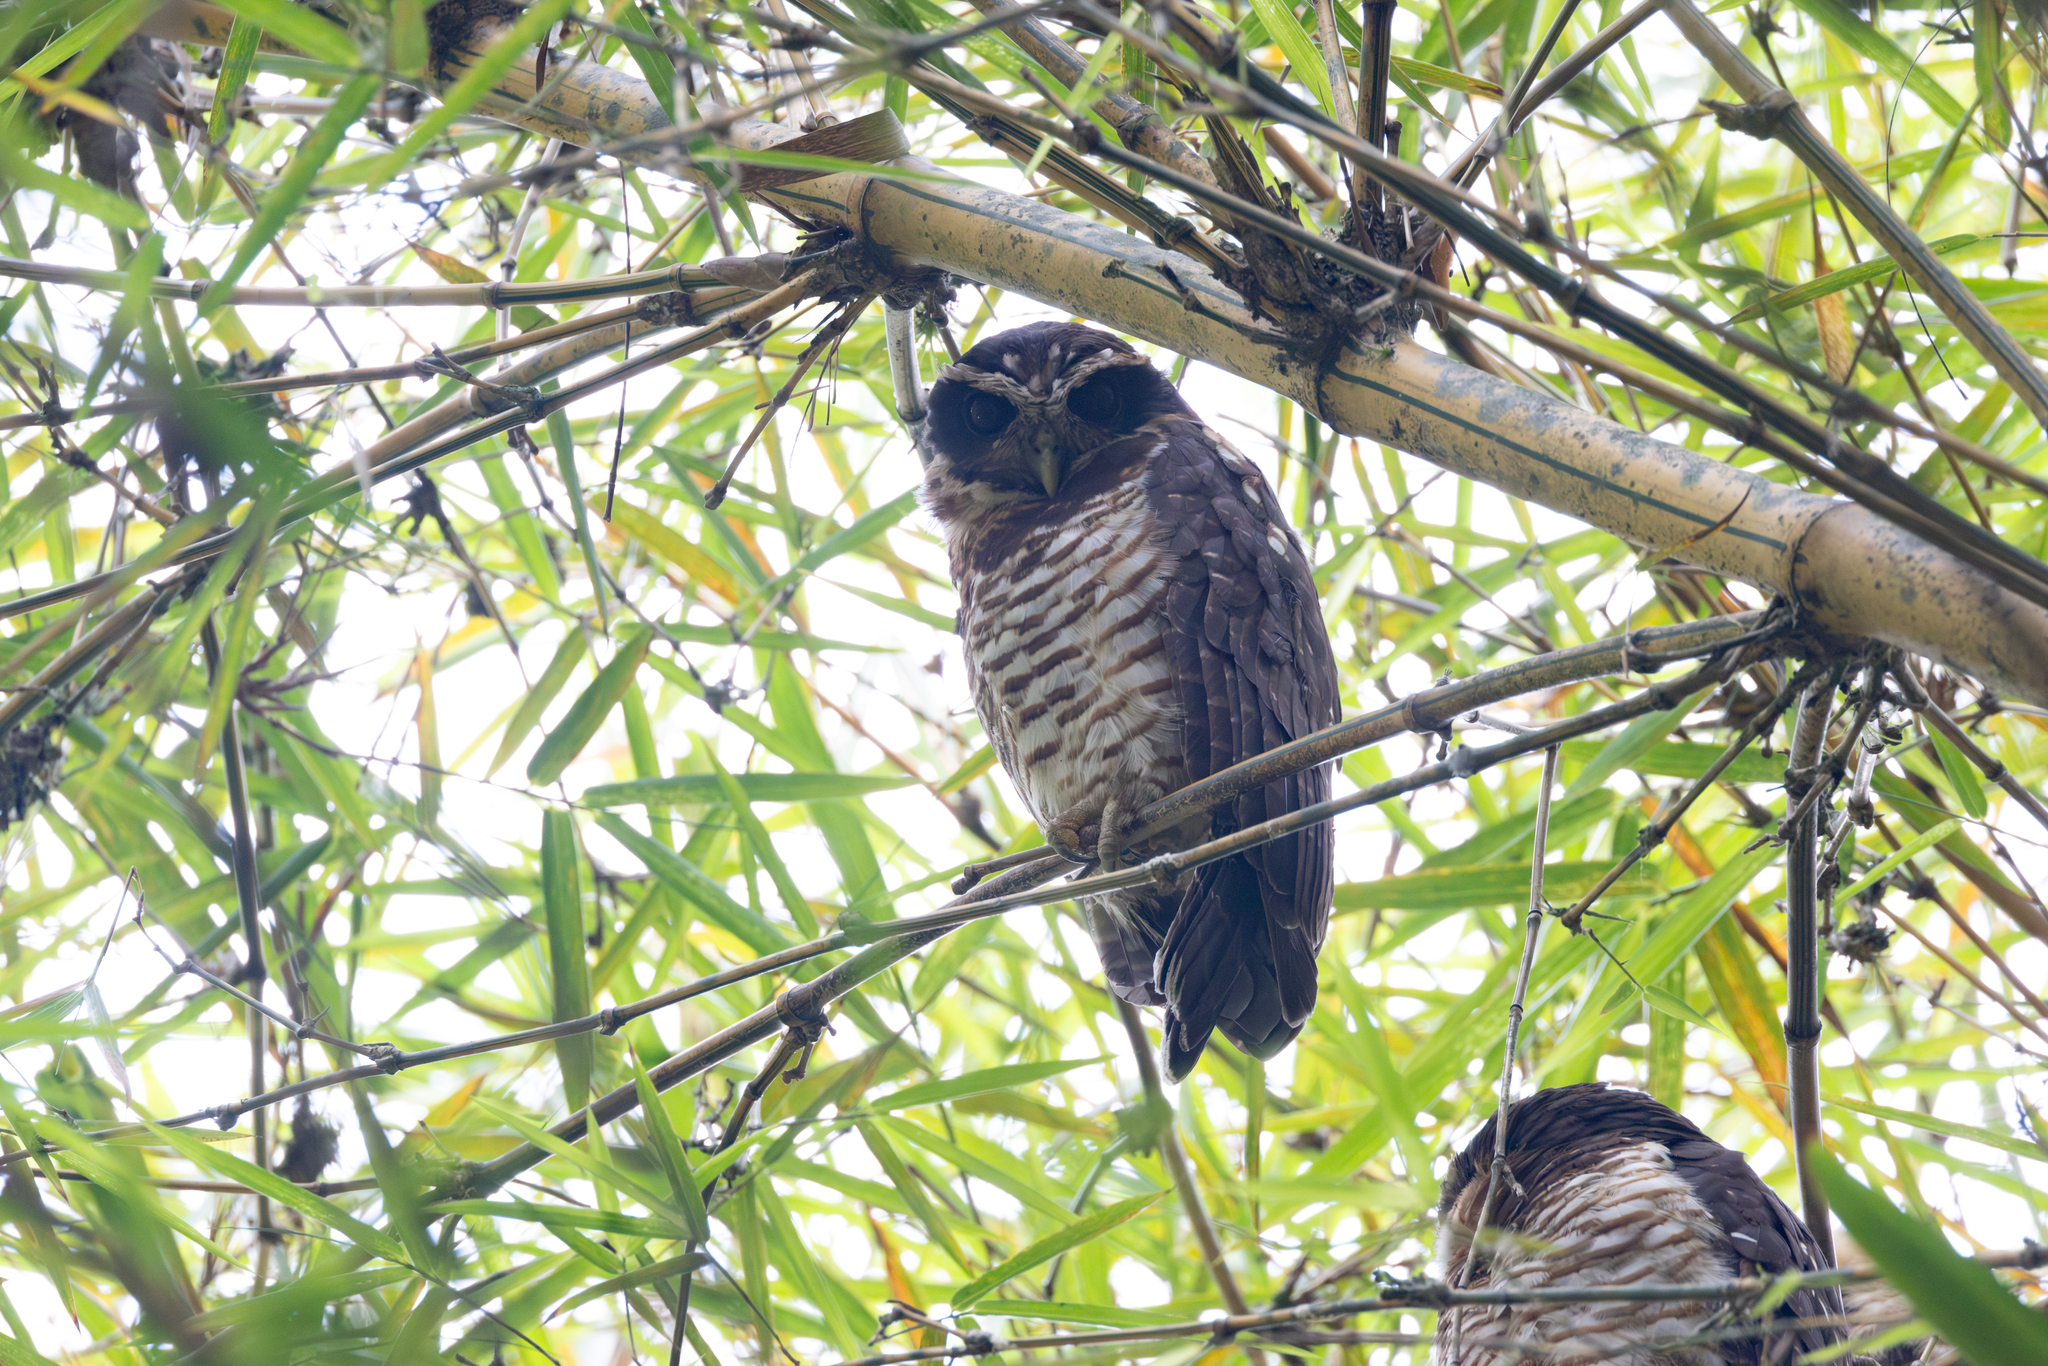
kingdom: Animalia
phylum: Chordata
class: Aves
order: Strigiformes
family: Strigidae
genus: Pulsatrix
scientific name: Pulsatrix melanota
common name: Band-bellied owl
